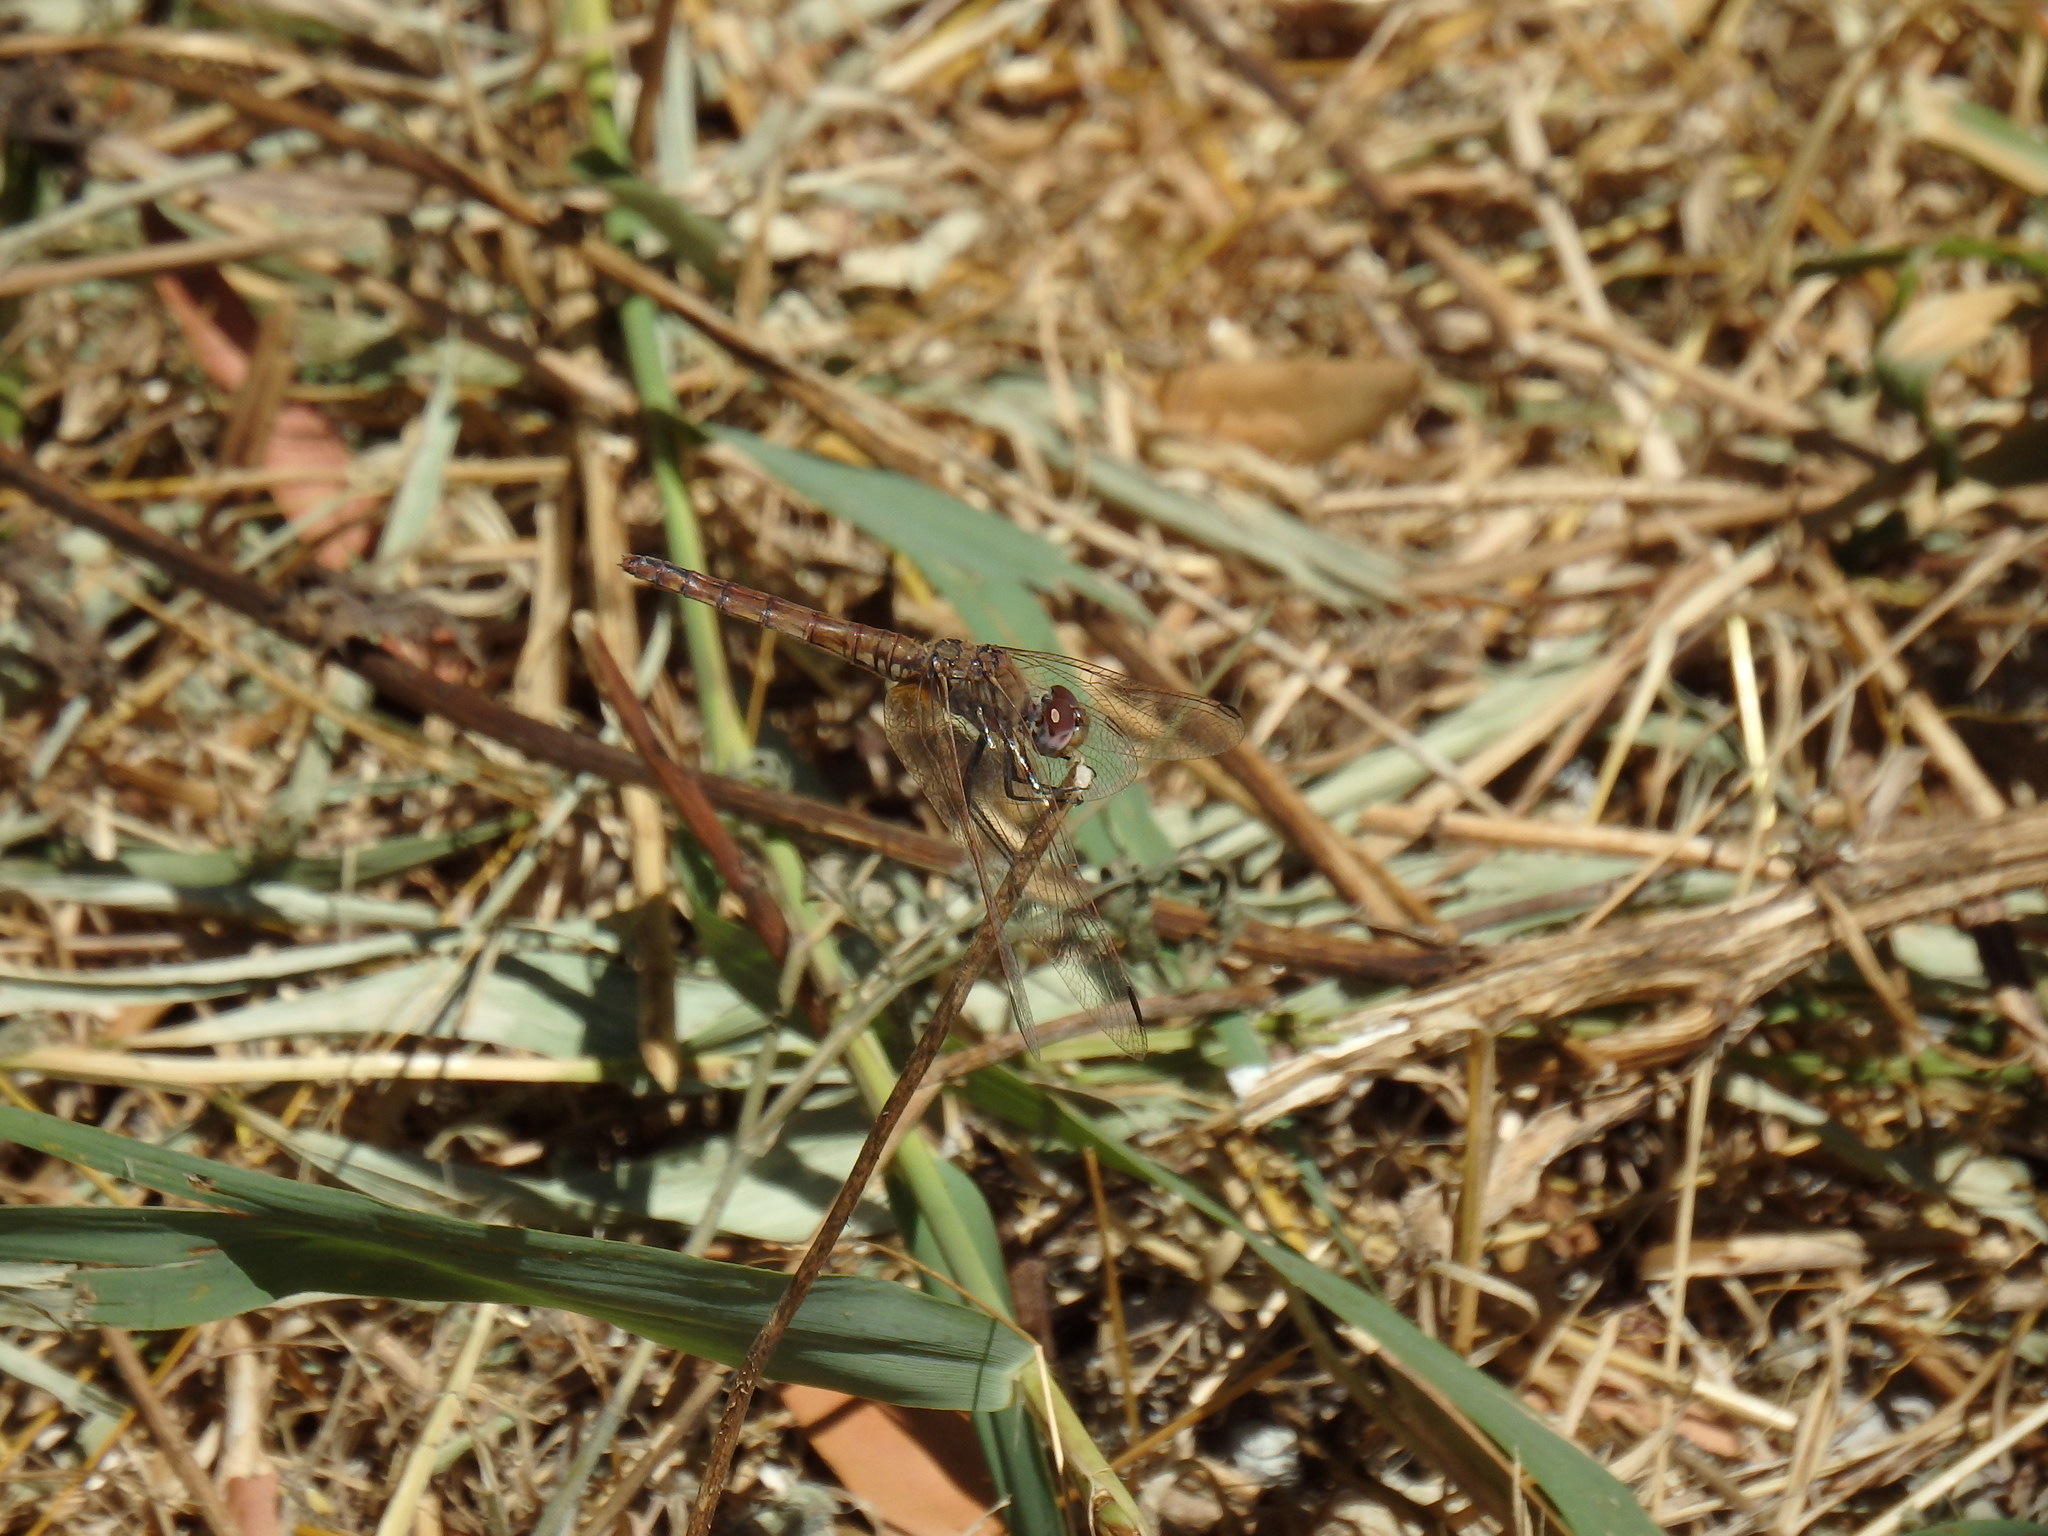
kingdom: Animalia
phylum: Arthropoda
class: Insecta
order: Odonata
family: Libellulidae
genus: Trithemis
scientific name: Trithemis annulata
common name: Violet dropwing
